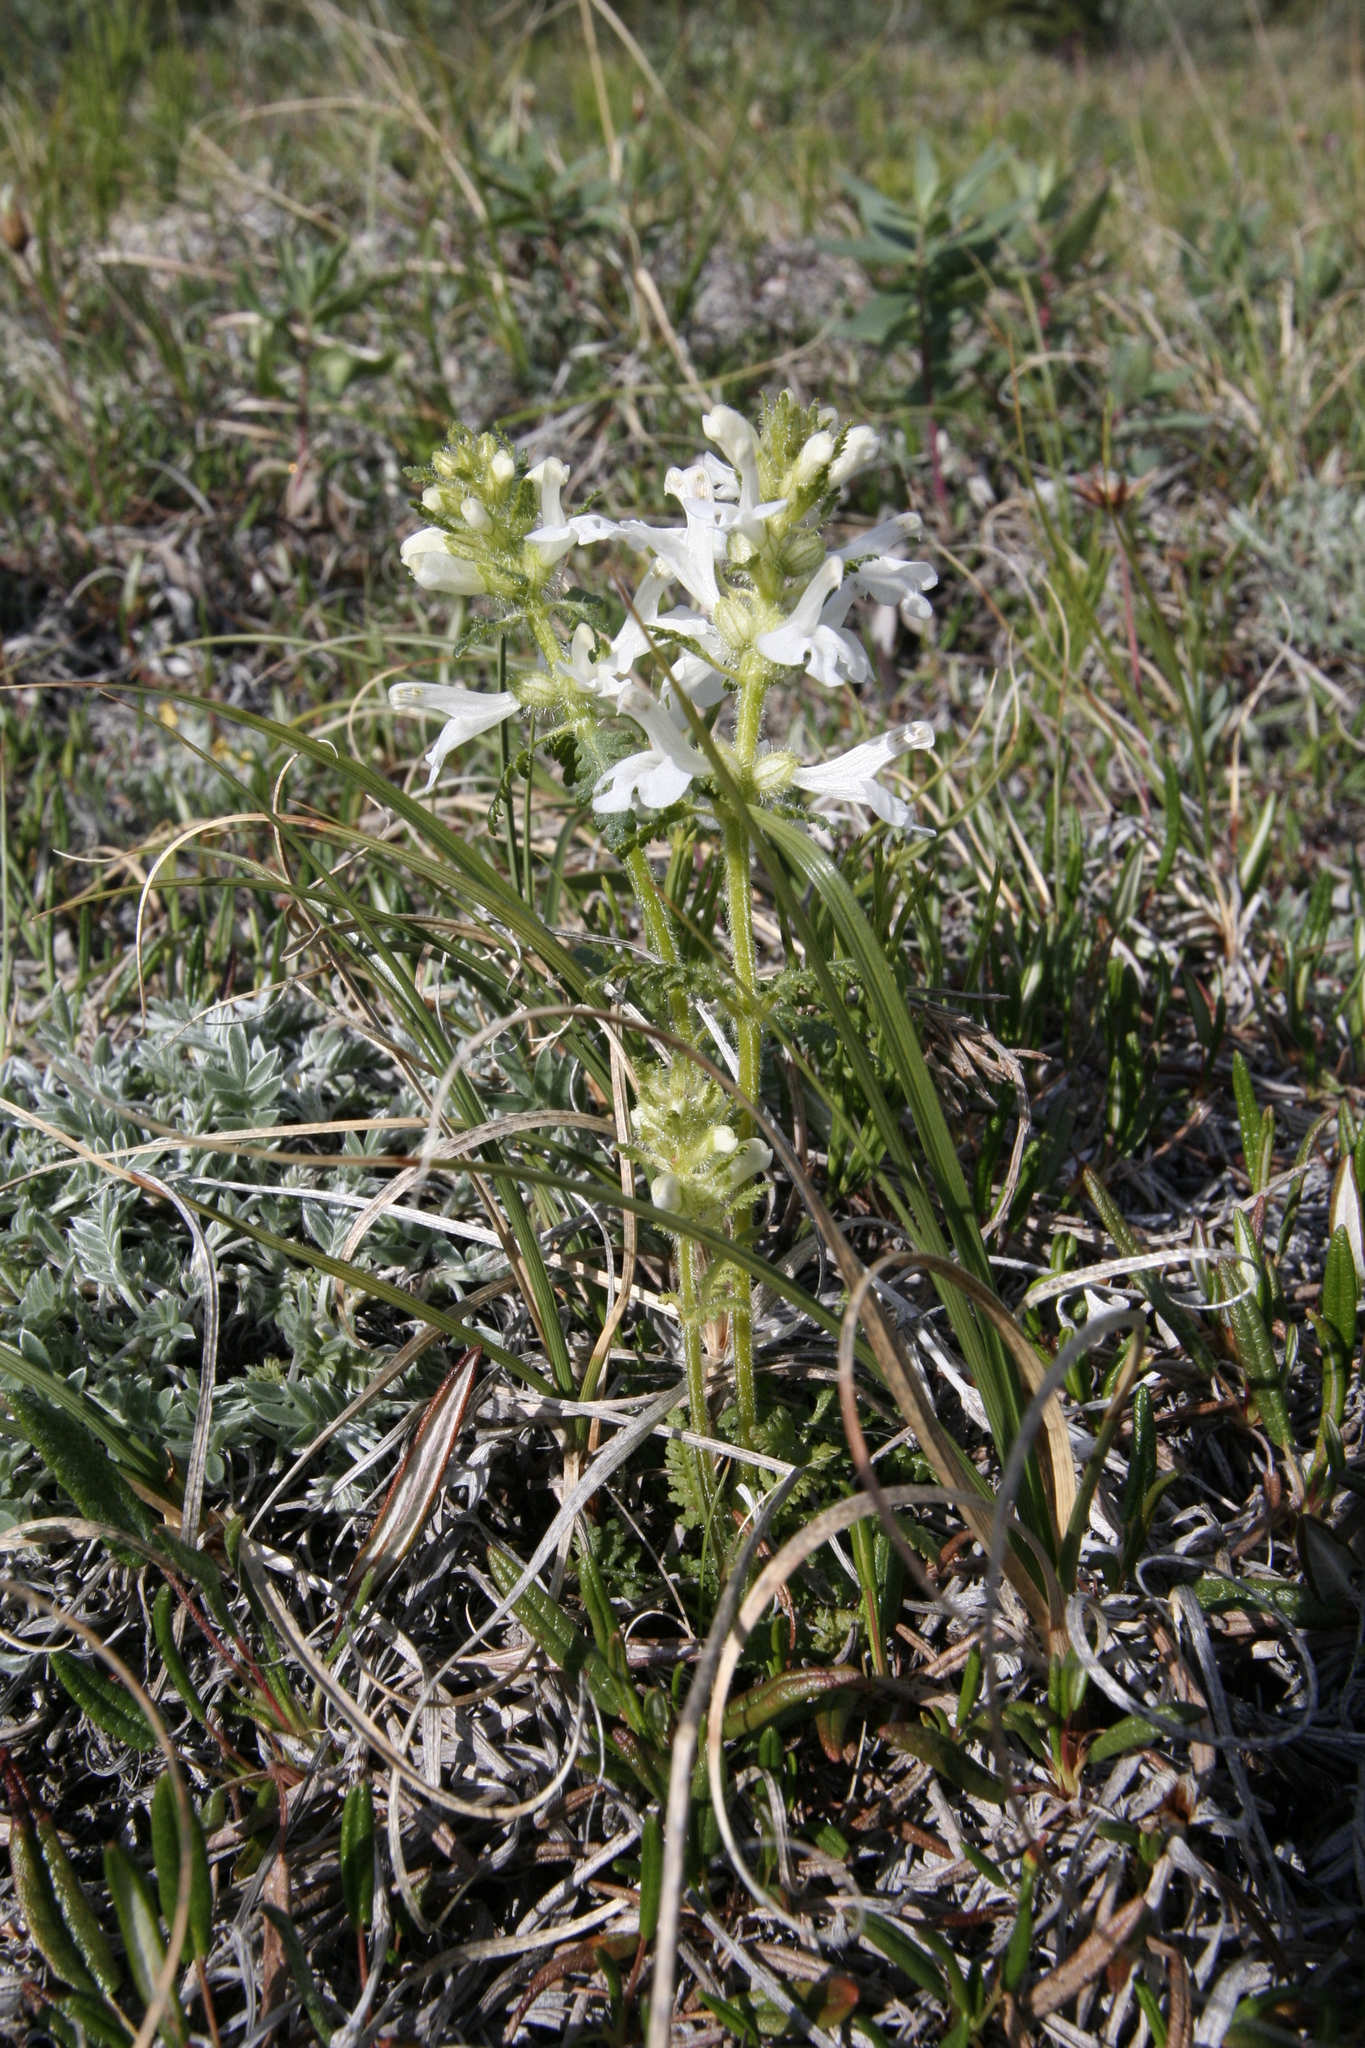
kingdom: Plantae
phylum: Tracheophyta
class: Magnoliopsida
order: Lamiales
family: Orobanchaceae
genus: Pedicularis
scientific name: Pedicularis verticillata
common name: Whorled lousewort
